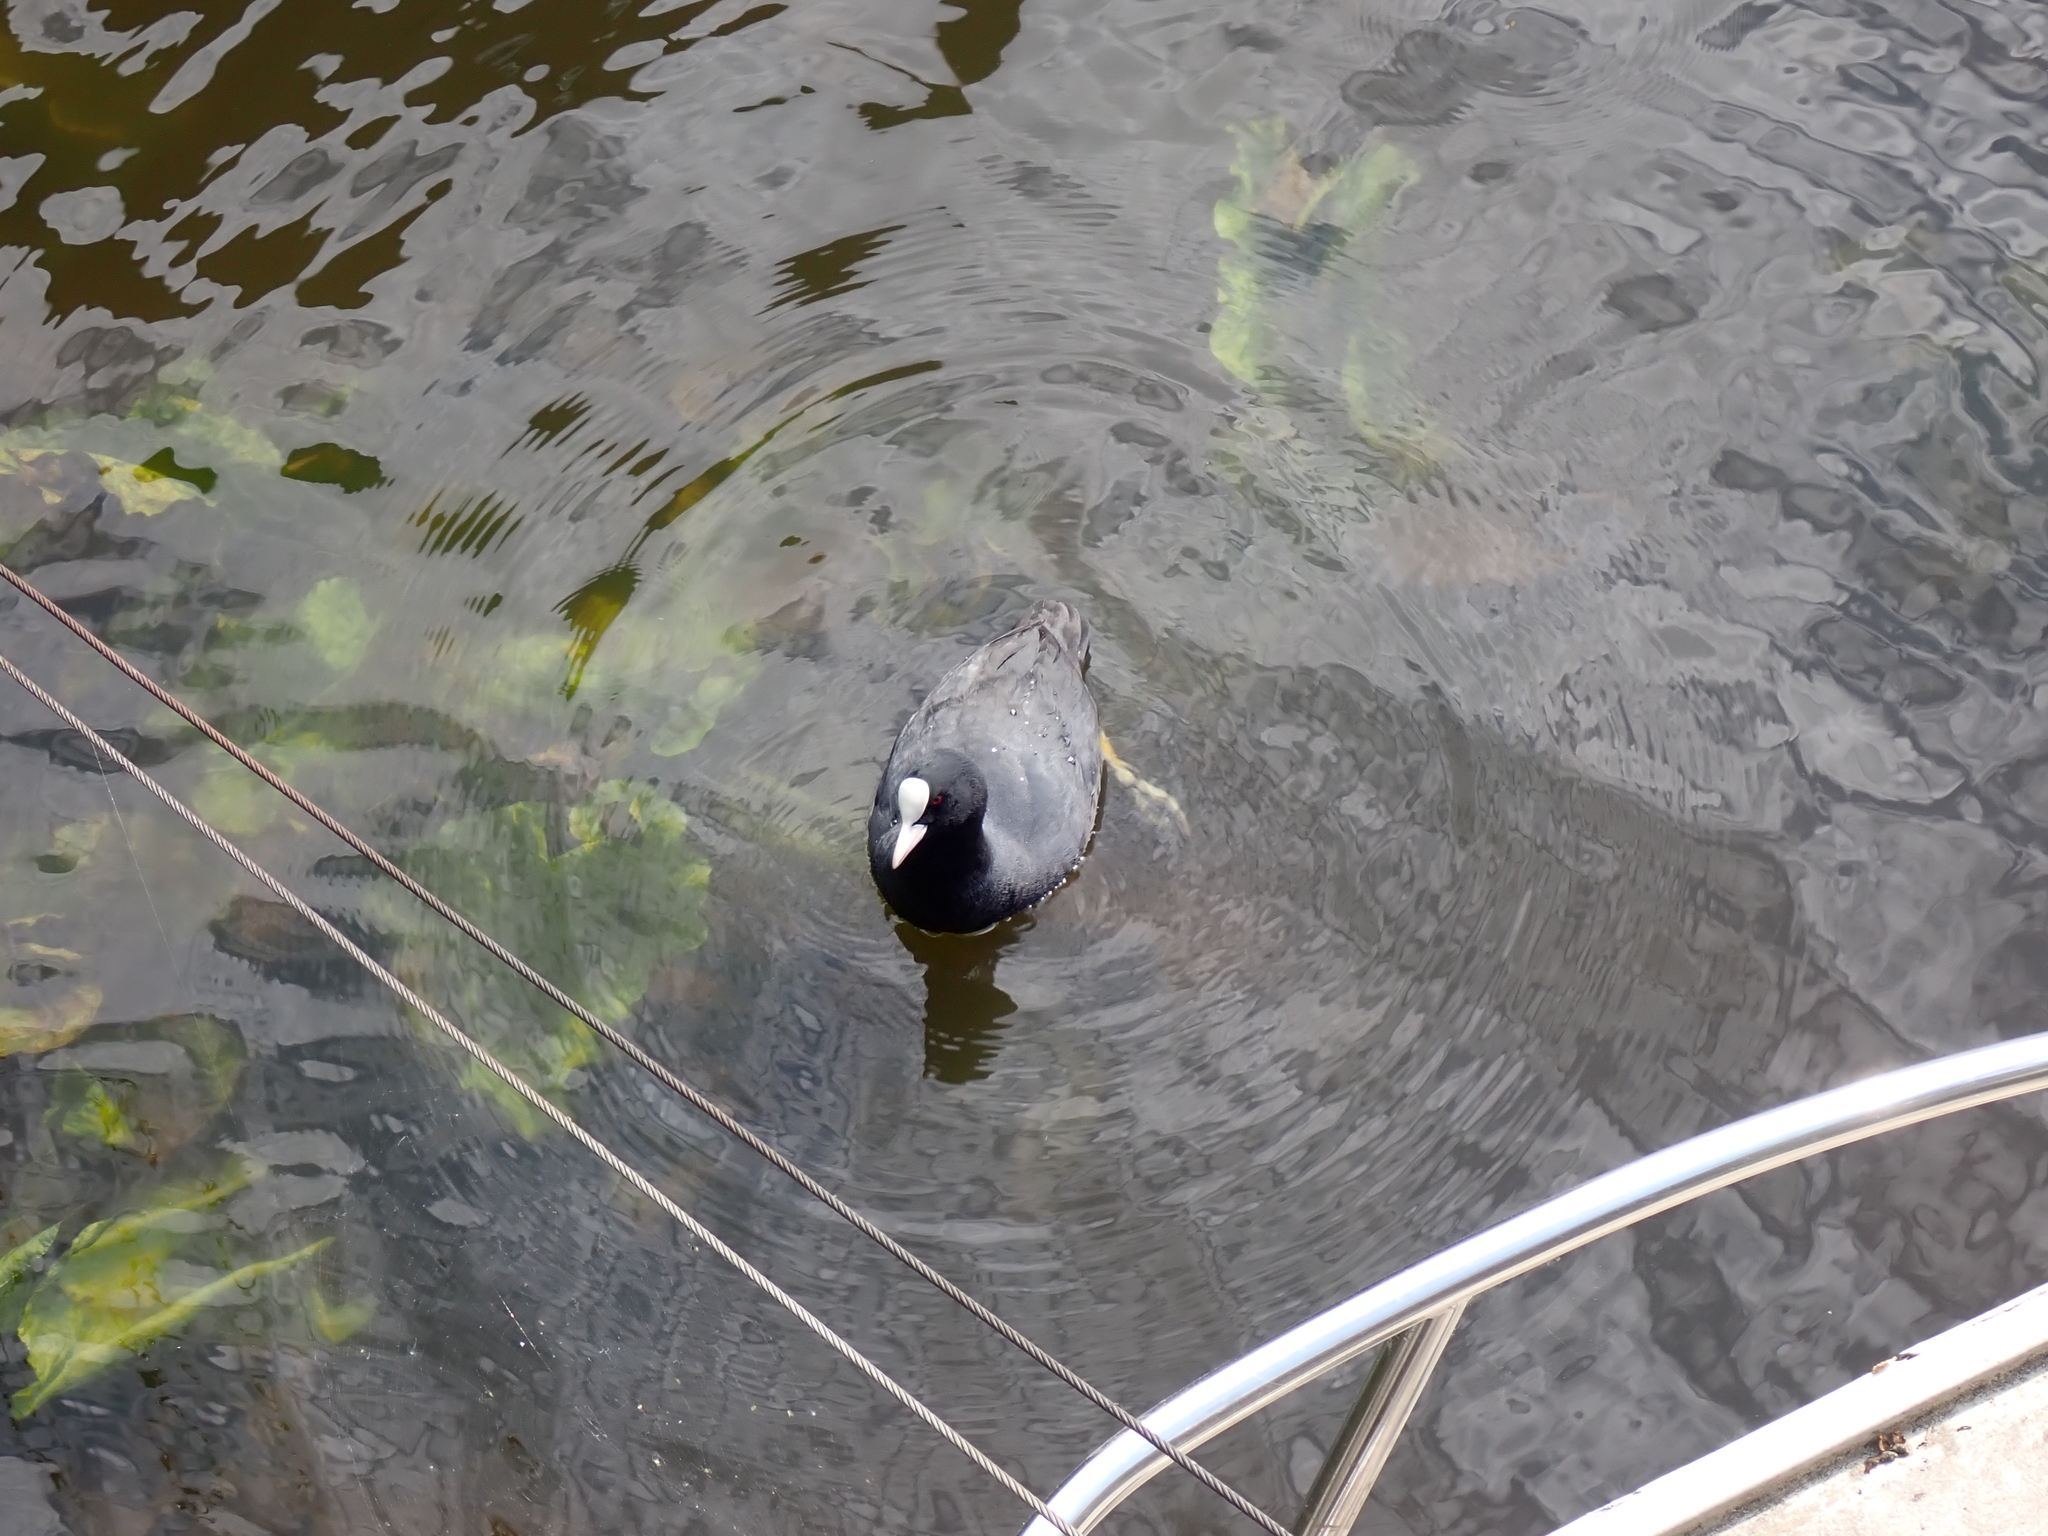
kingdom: Animalia
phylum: Chordata
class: Aves
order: Gruiformes
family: Rallidae
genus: Fulica
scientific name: Fulica atra
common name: Eurasian coot
